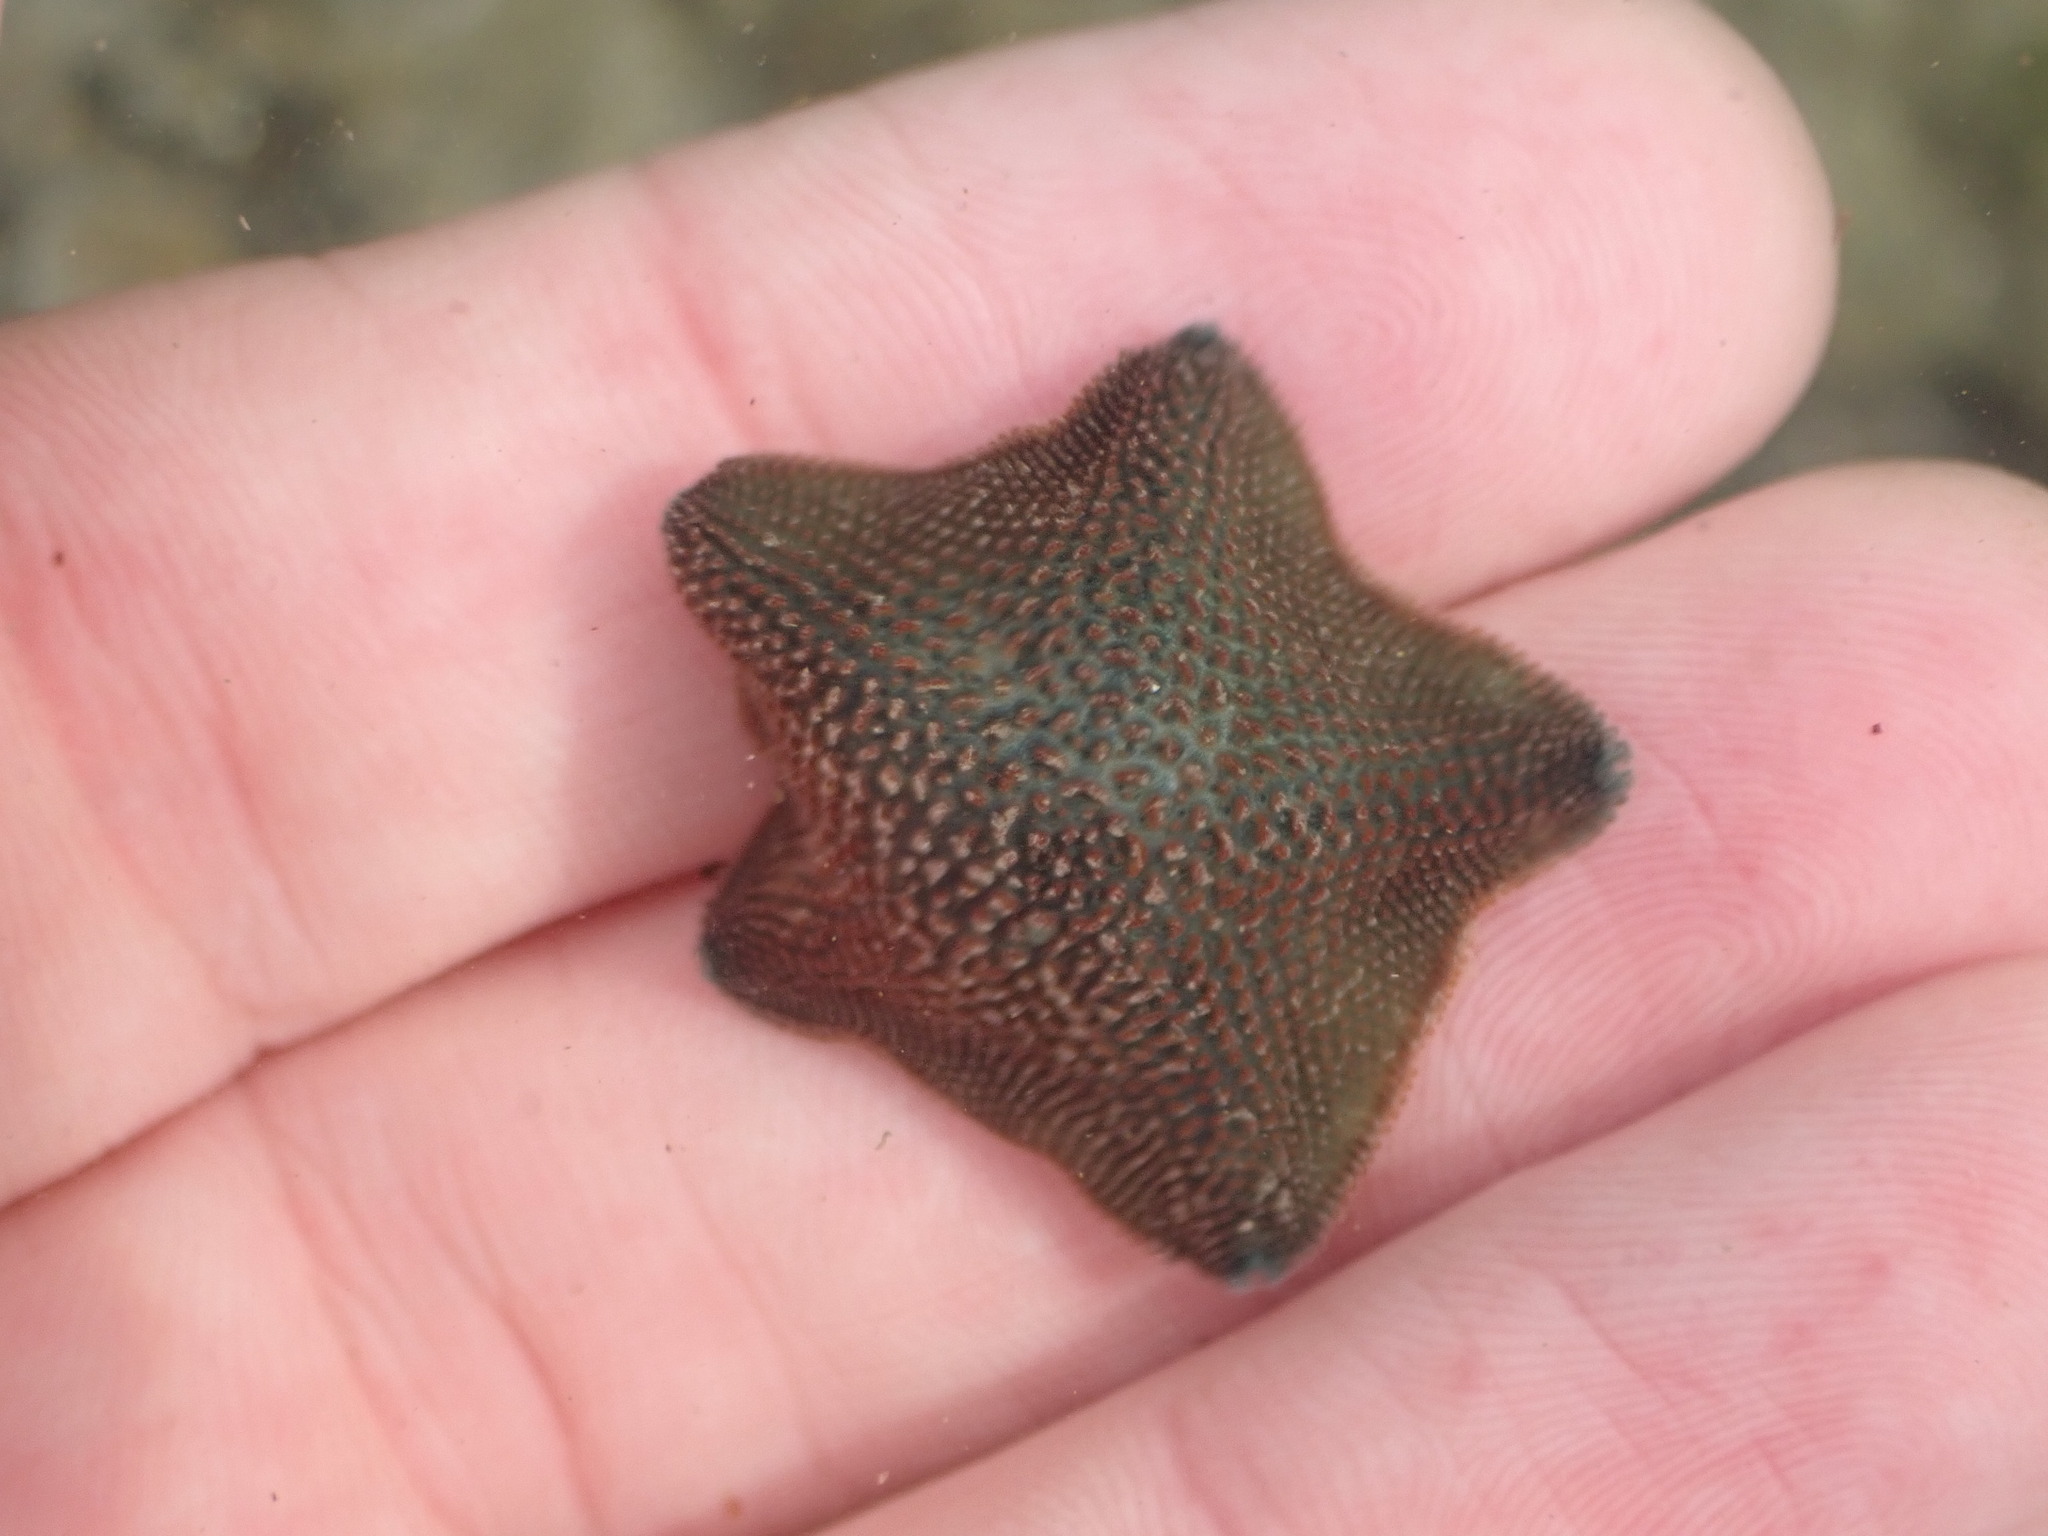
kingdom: Animalia
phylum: Echinodermata
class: Asteroidea
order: Valvatida
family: Asterinidae
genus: Patiriella
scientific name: Patiriella regularis
